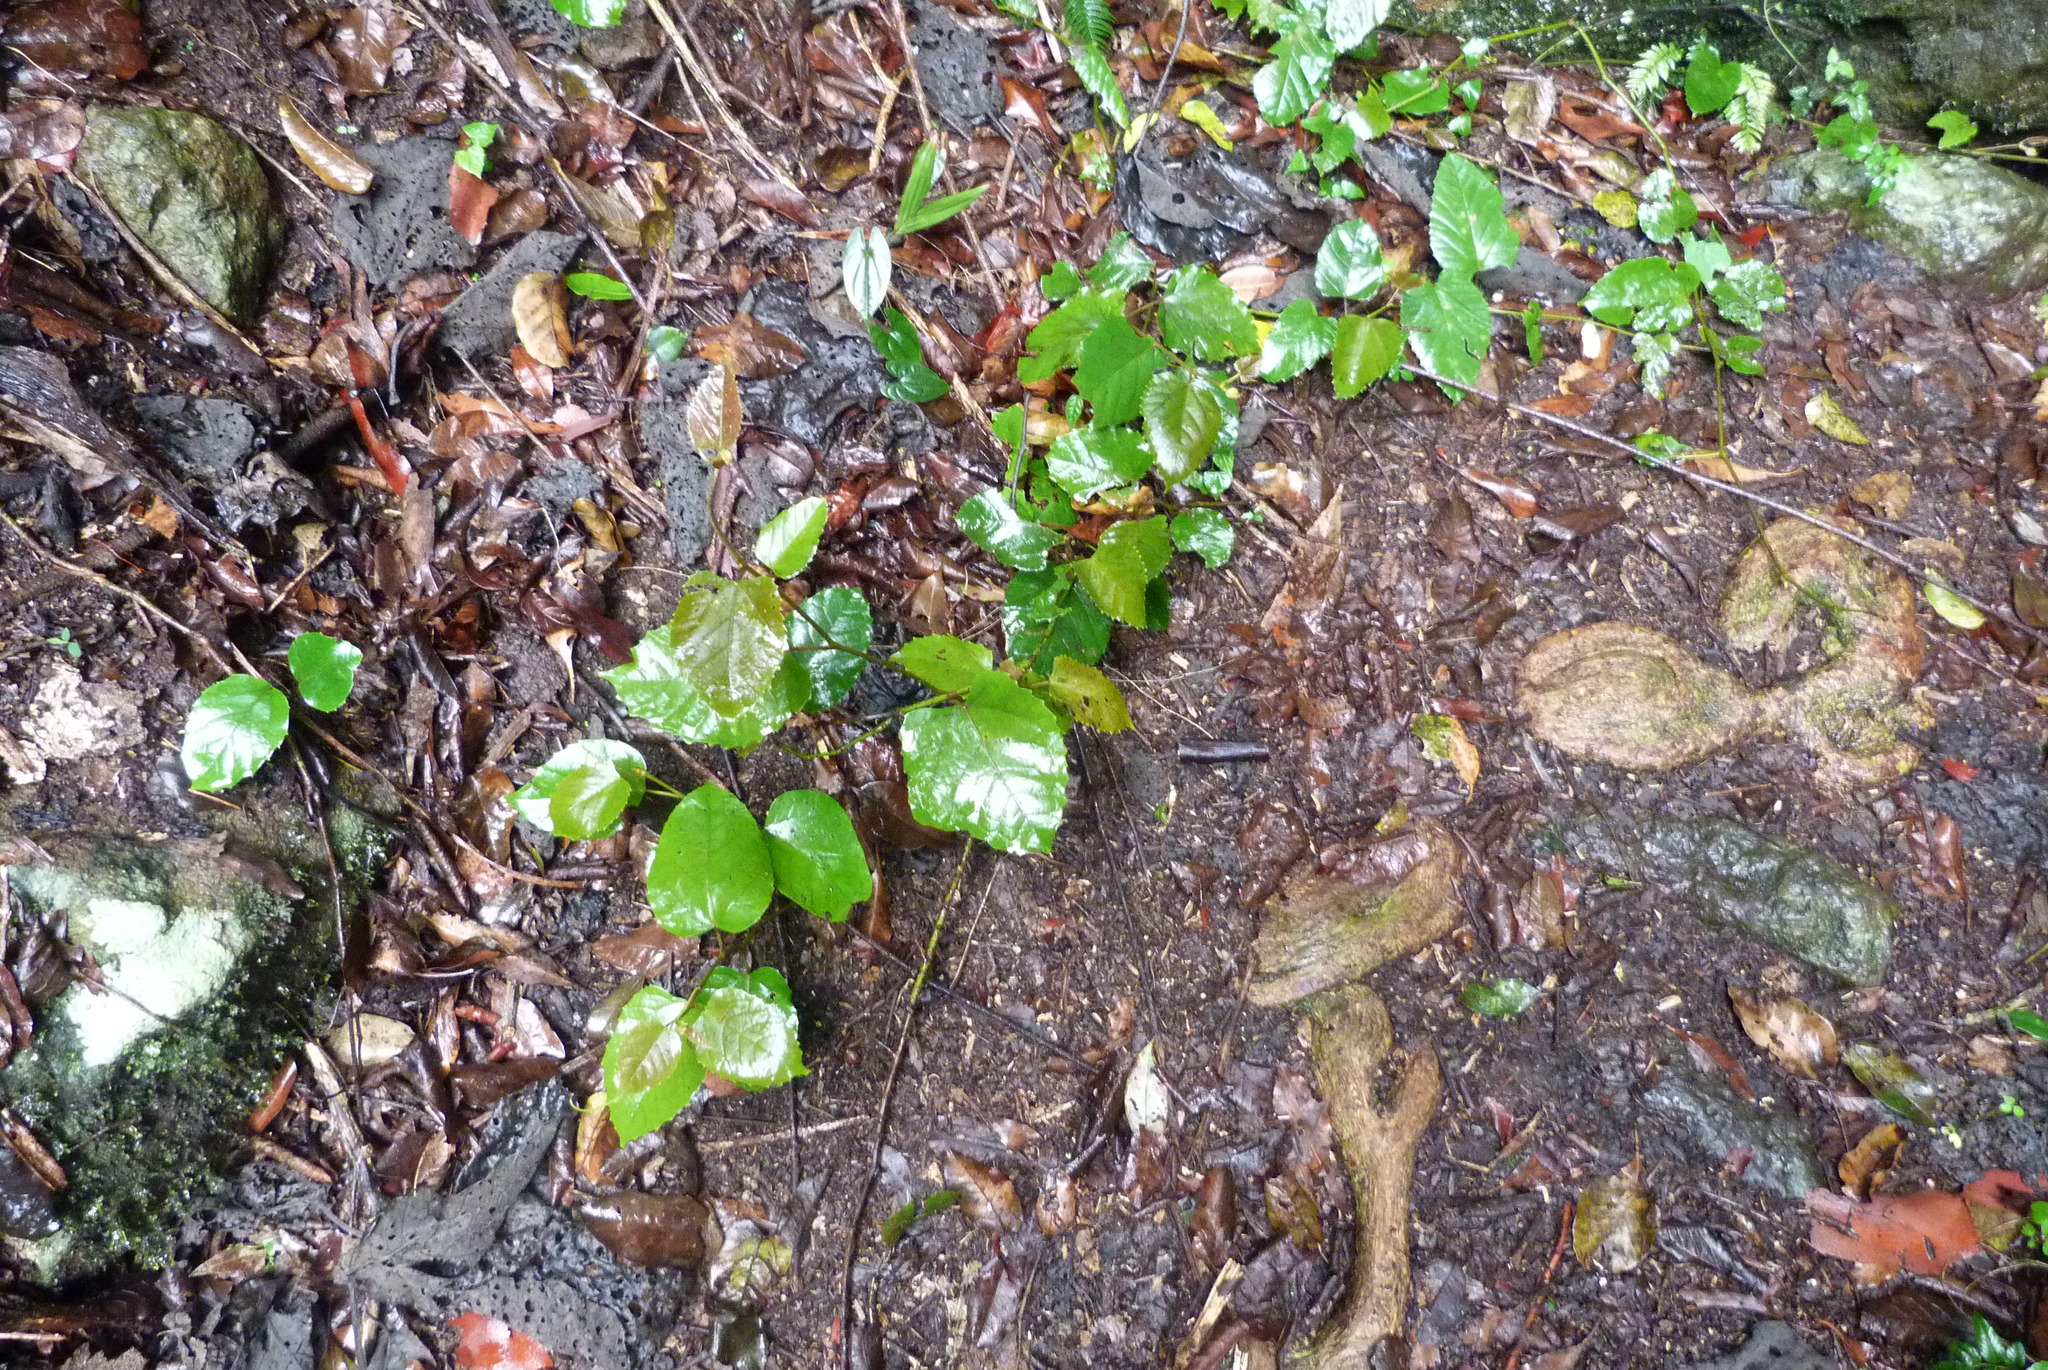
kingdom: Plantae
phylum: Tracheophyta
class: Magnoliopsida
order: Vitales
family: Vitaceae
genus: Cissus
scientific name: Cissus antarctica
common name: Kangaroo vine
